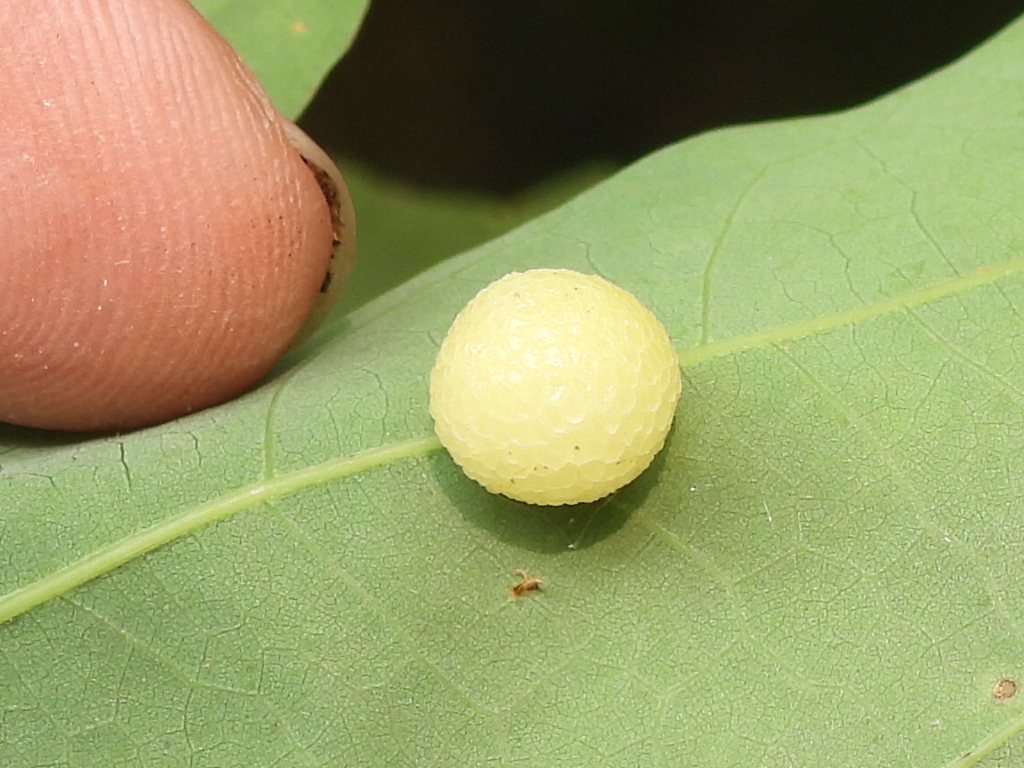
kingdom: Animalia
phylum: Arthropoda
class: Insecta
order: Hymenoptera
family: Cynipidae
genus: Acraspis
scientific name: Acraspis
